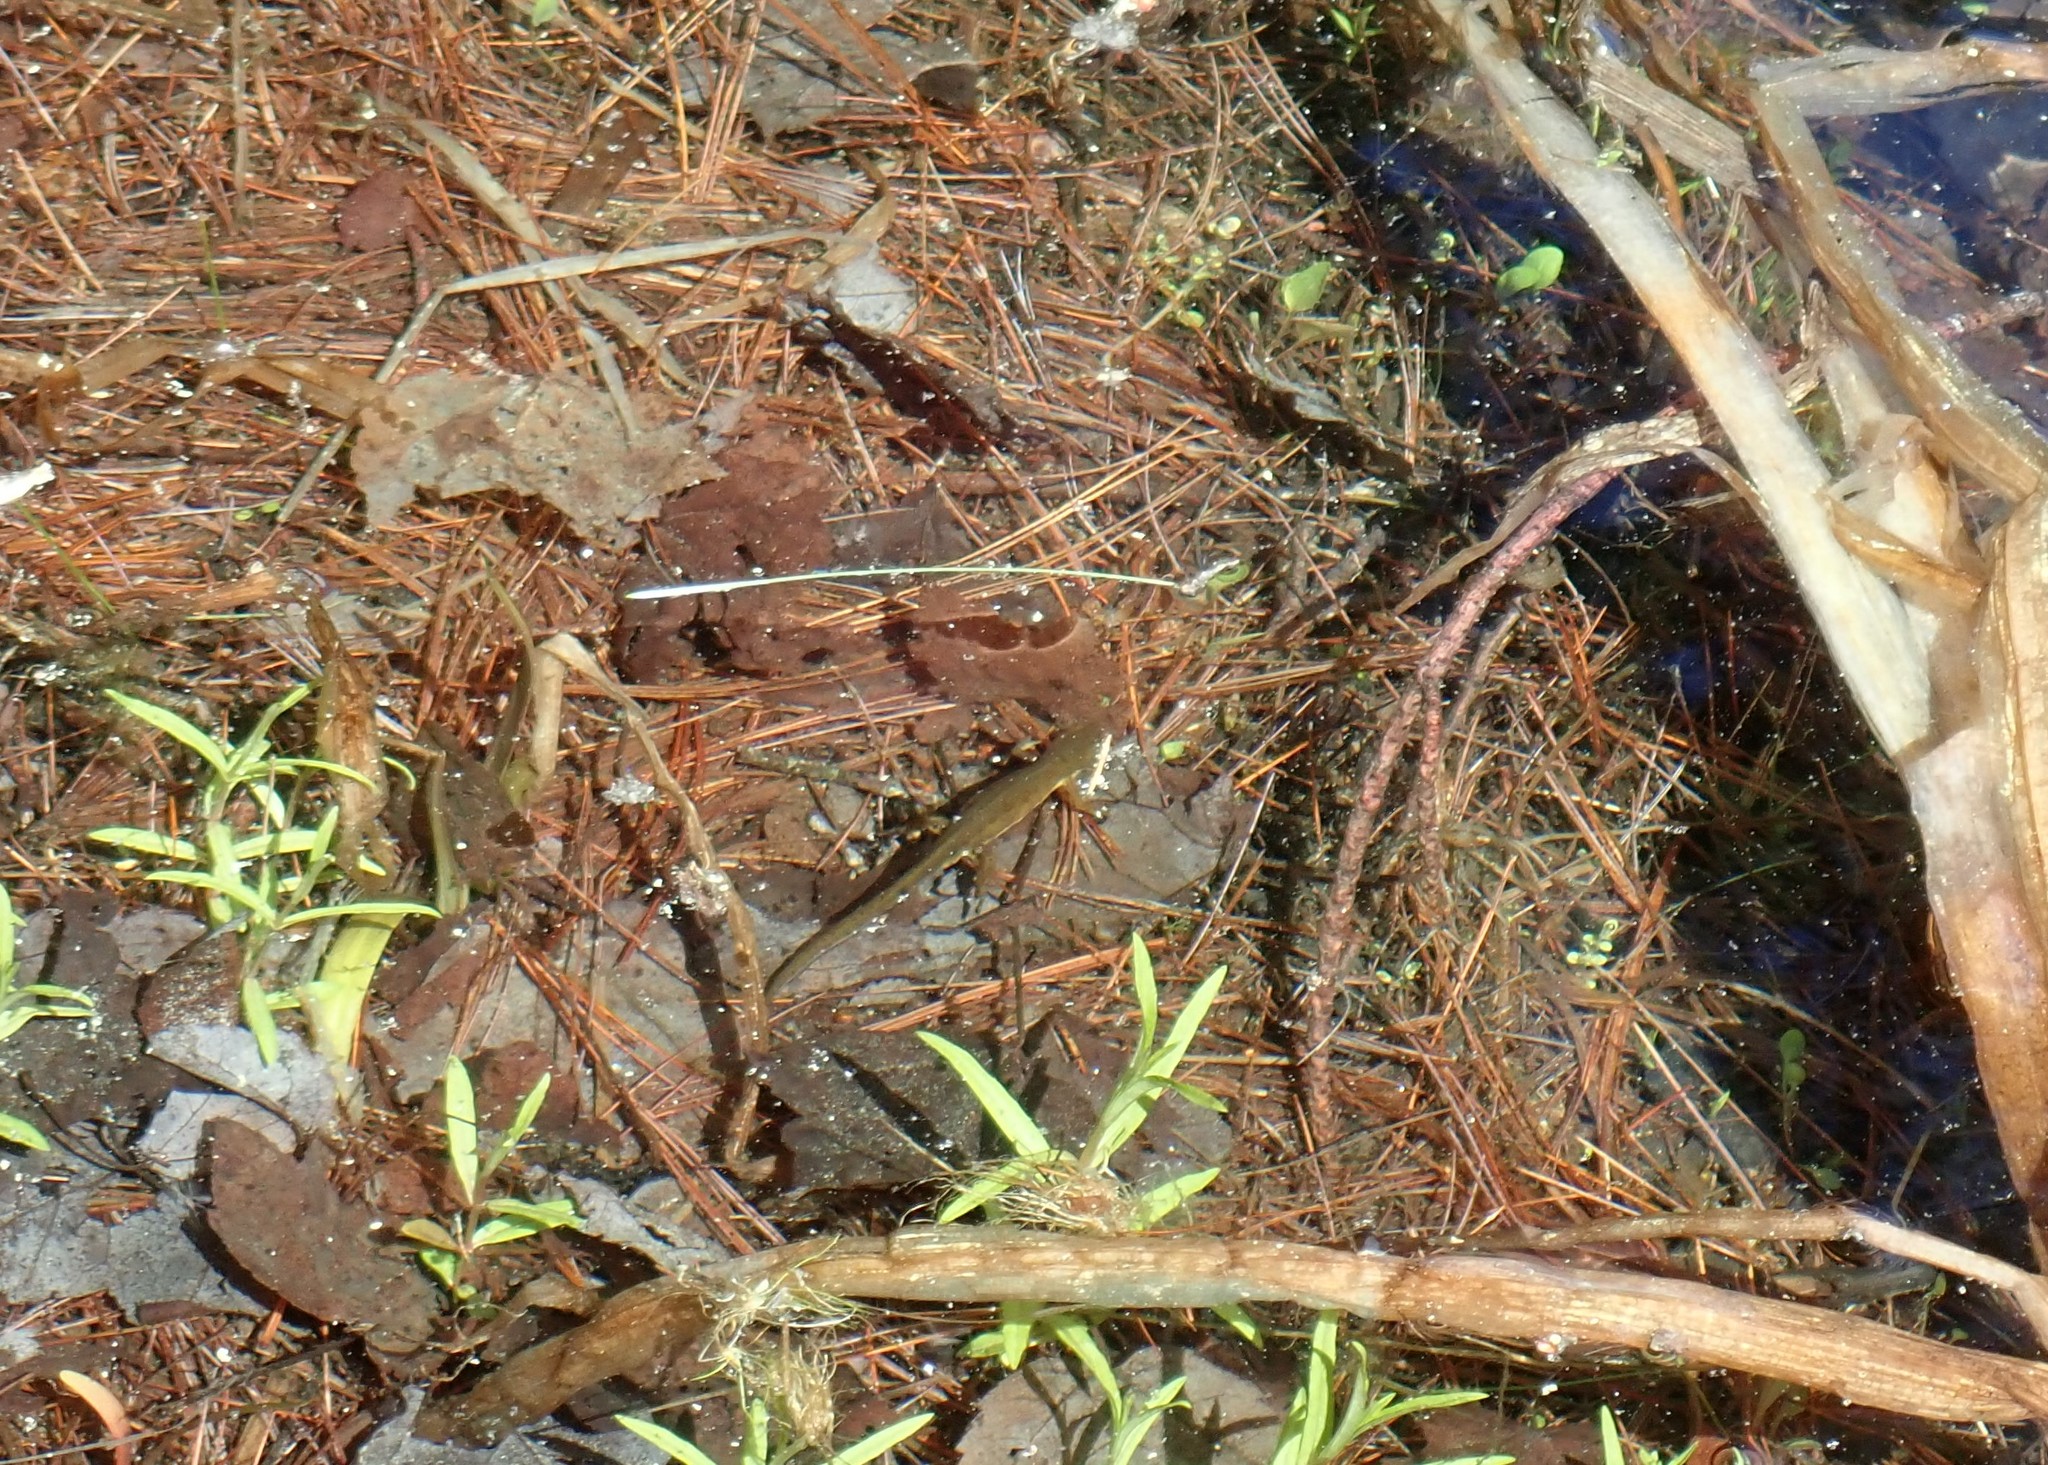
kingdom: Animalia
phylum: Chordata
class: Amphibia
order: Caudata
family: Salamandridae
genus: Notophthalmus
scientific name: Notophthalmus viridescens
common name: Eastern newt
